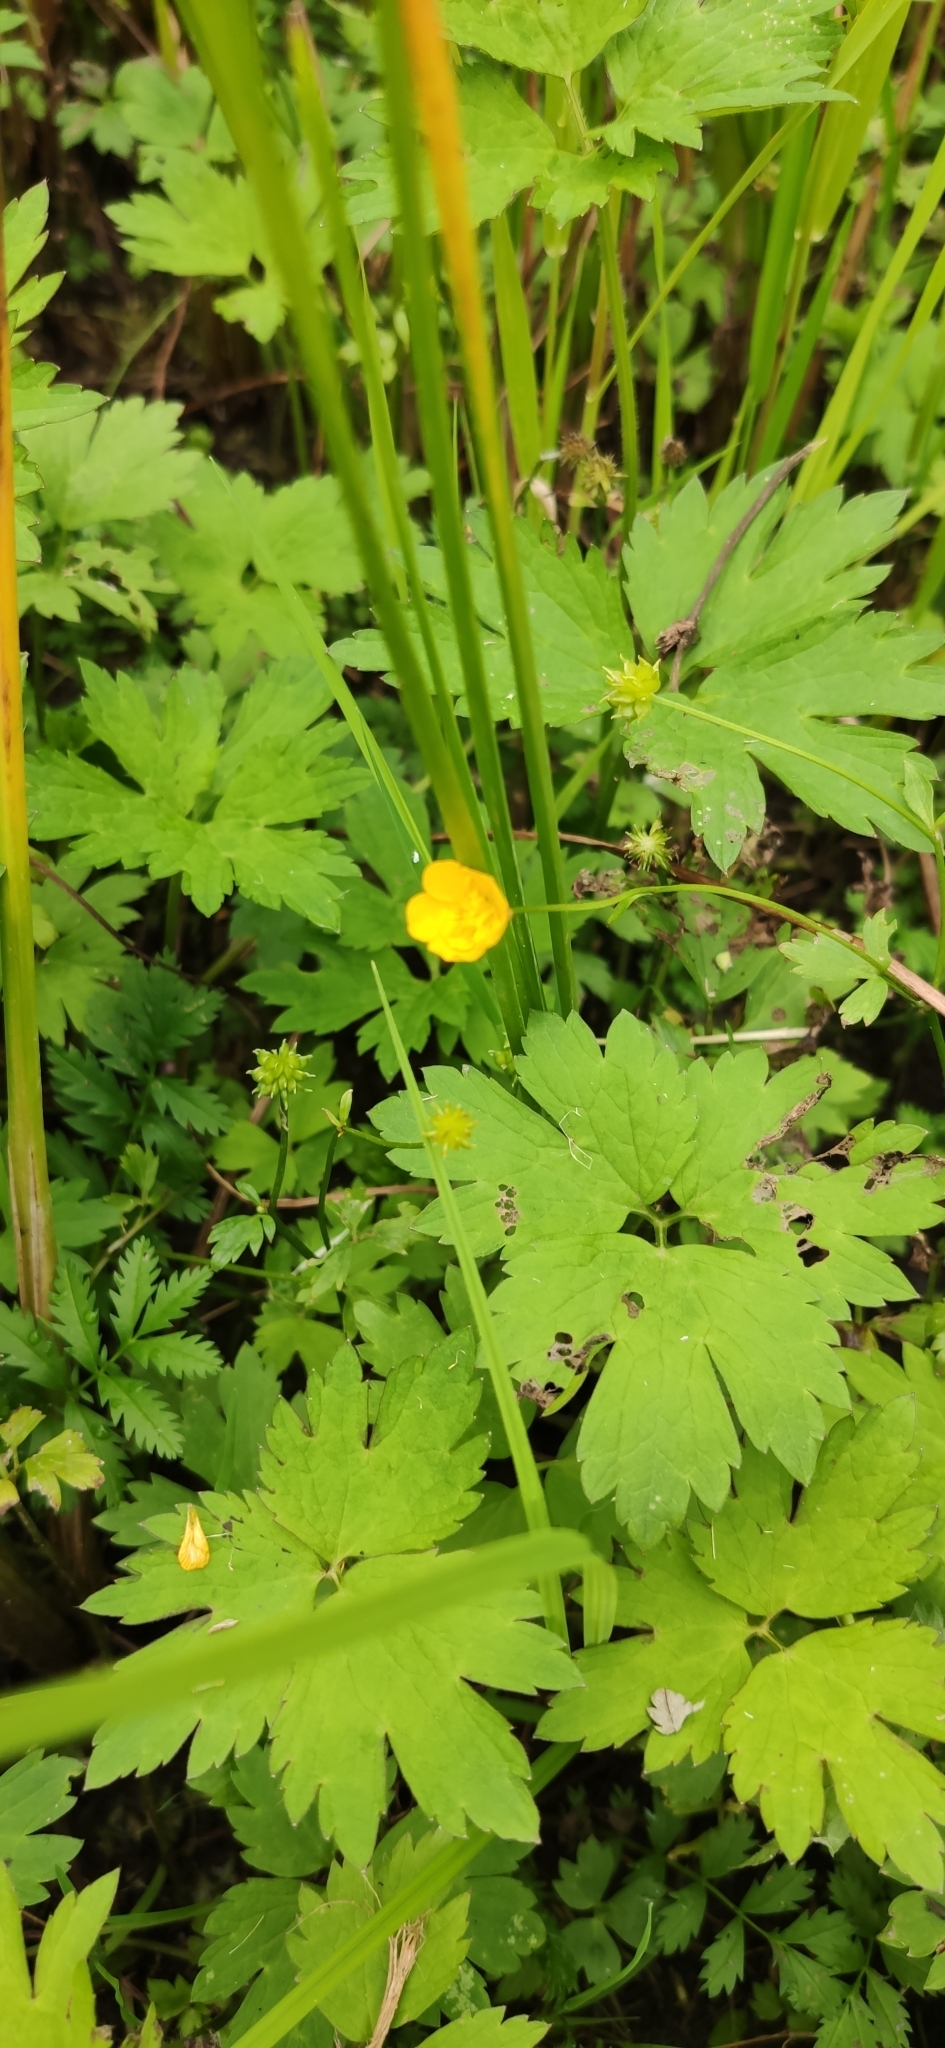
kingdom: Plantae
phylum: Tracheophyta
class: Magnoliopsida
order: Ranunculales
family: Ranunculaceae
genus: Ranunculus
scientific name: Ranunculus repens
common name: Creeping buttercup
